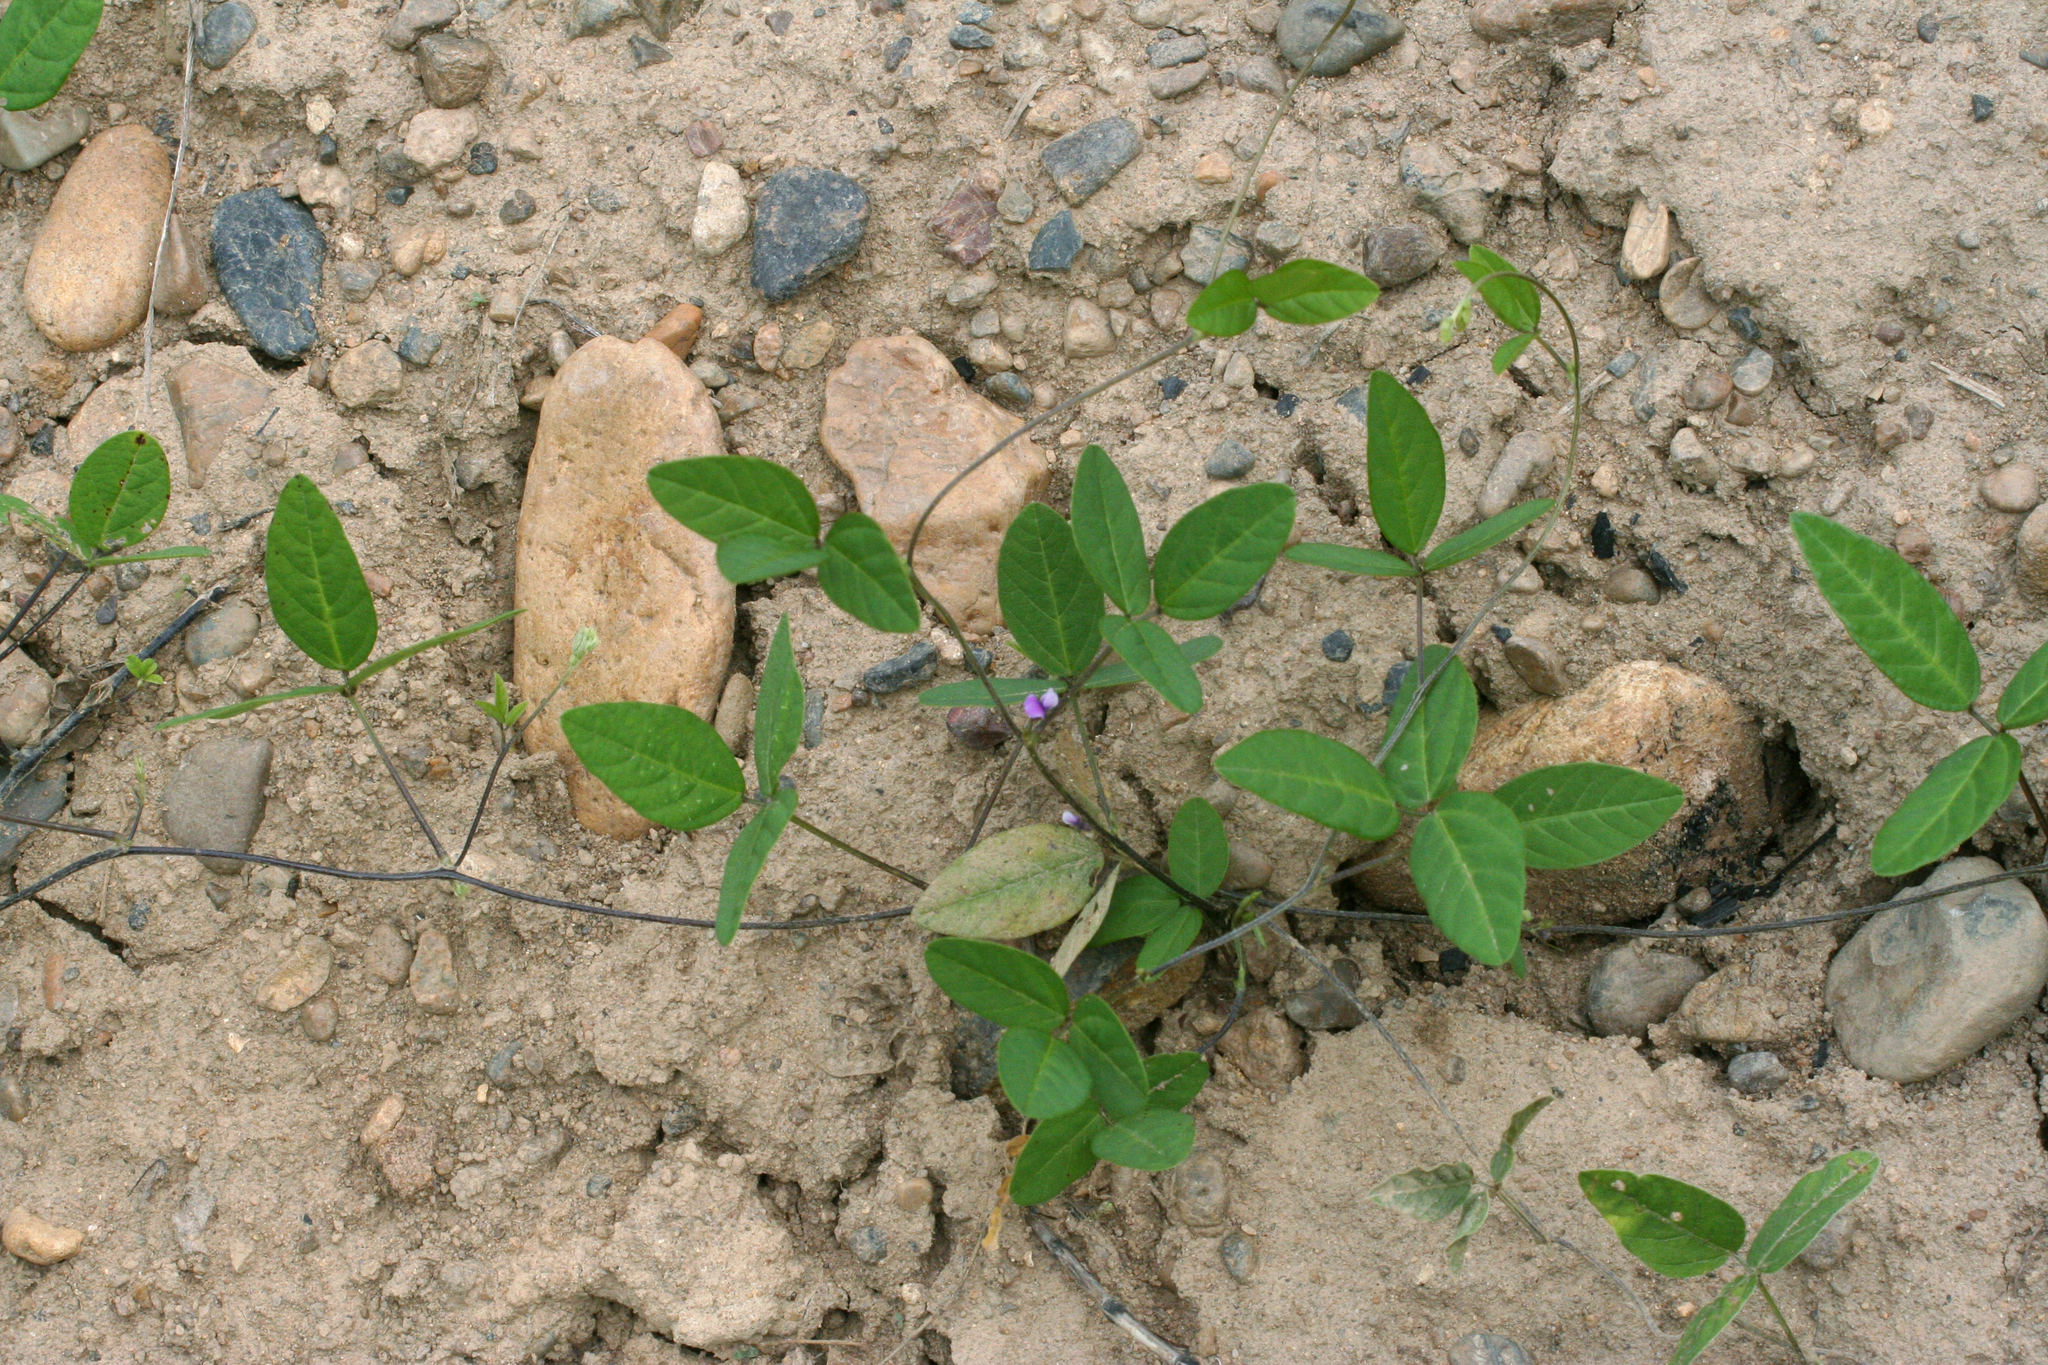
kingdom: Plantae
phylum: Tracheophyta
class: Magnoliopsida
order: Fabales
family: Fabaceae
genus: Glycine
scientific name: Glycine max
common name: Soya-bean
